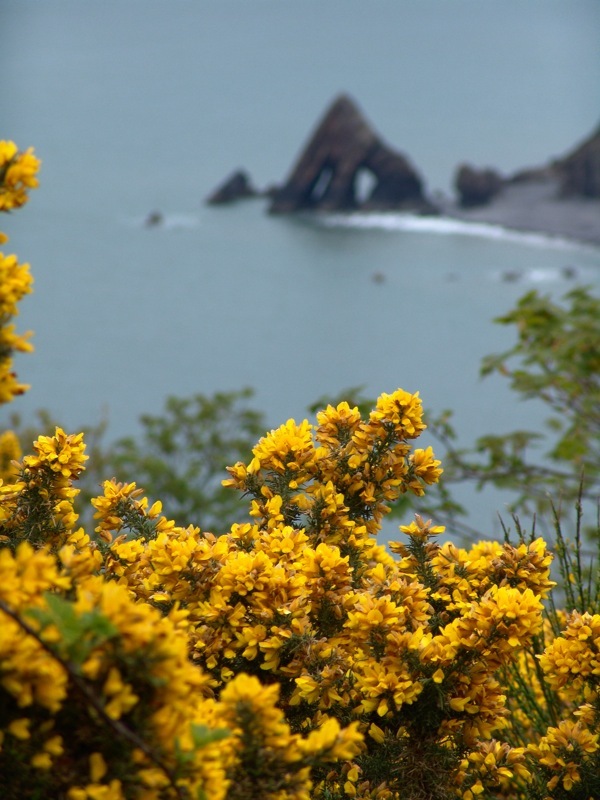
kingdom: Plantae
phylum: Tracheophyta
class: Magnoliopsida
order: Fabales
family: Fabaceae
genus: Ulex
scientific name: Ulex europaeus
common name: Common gorse
